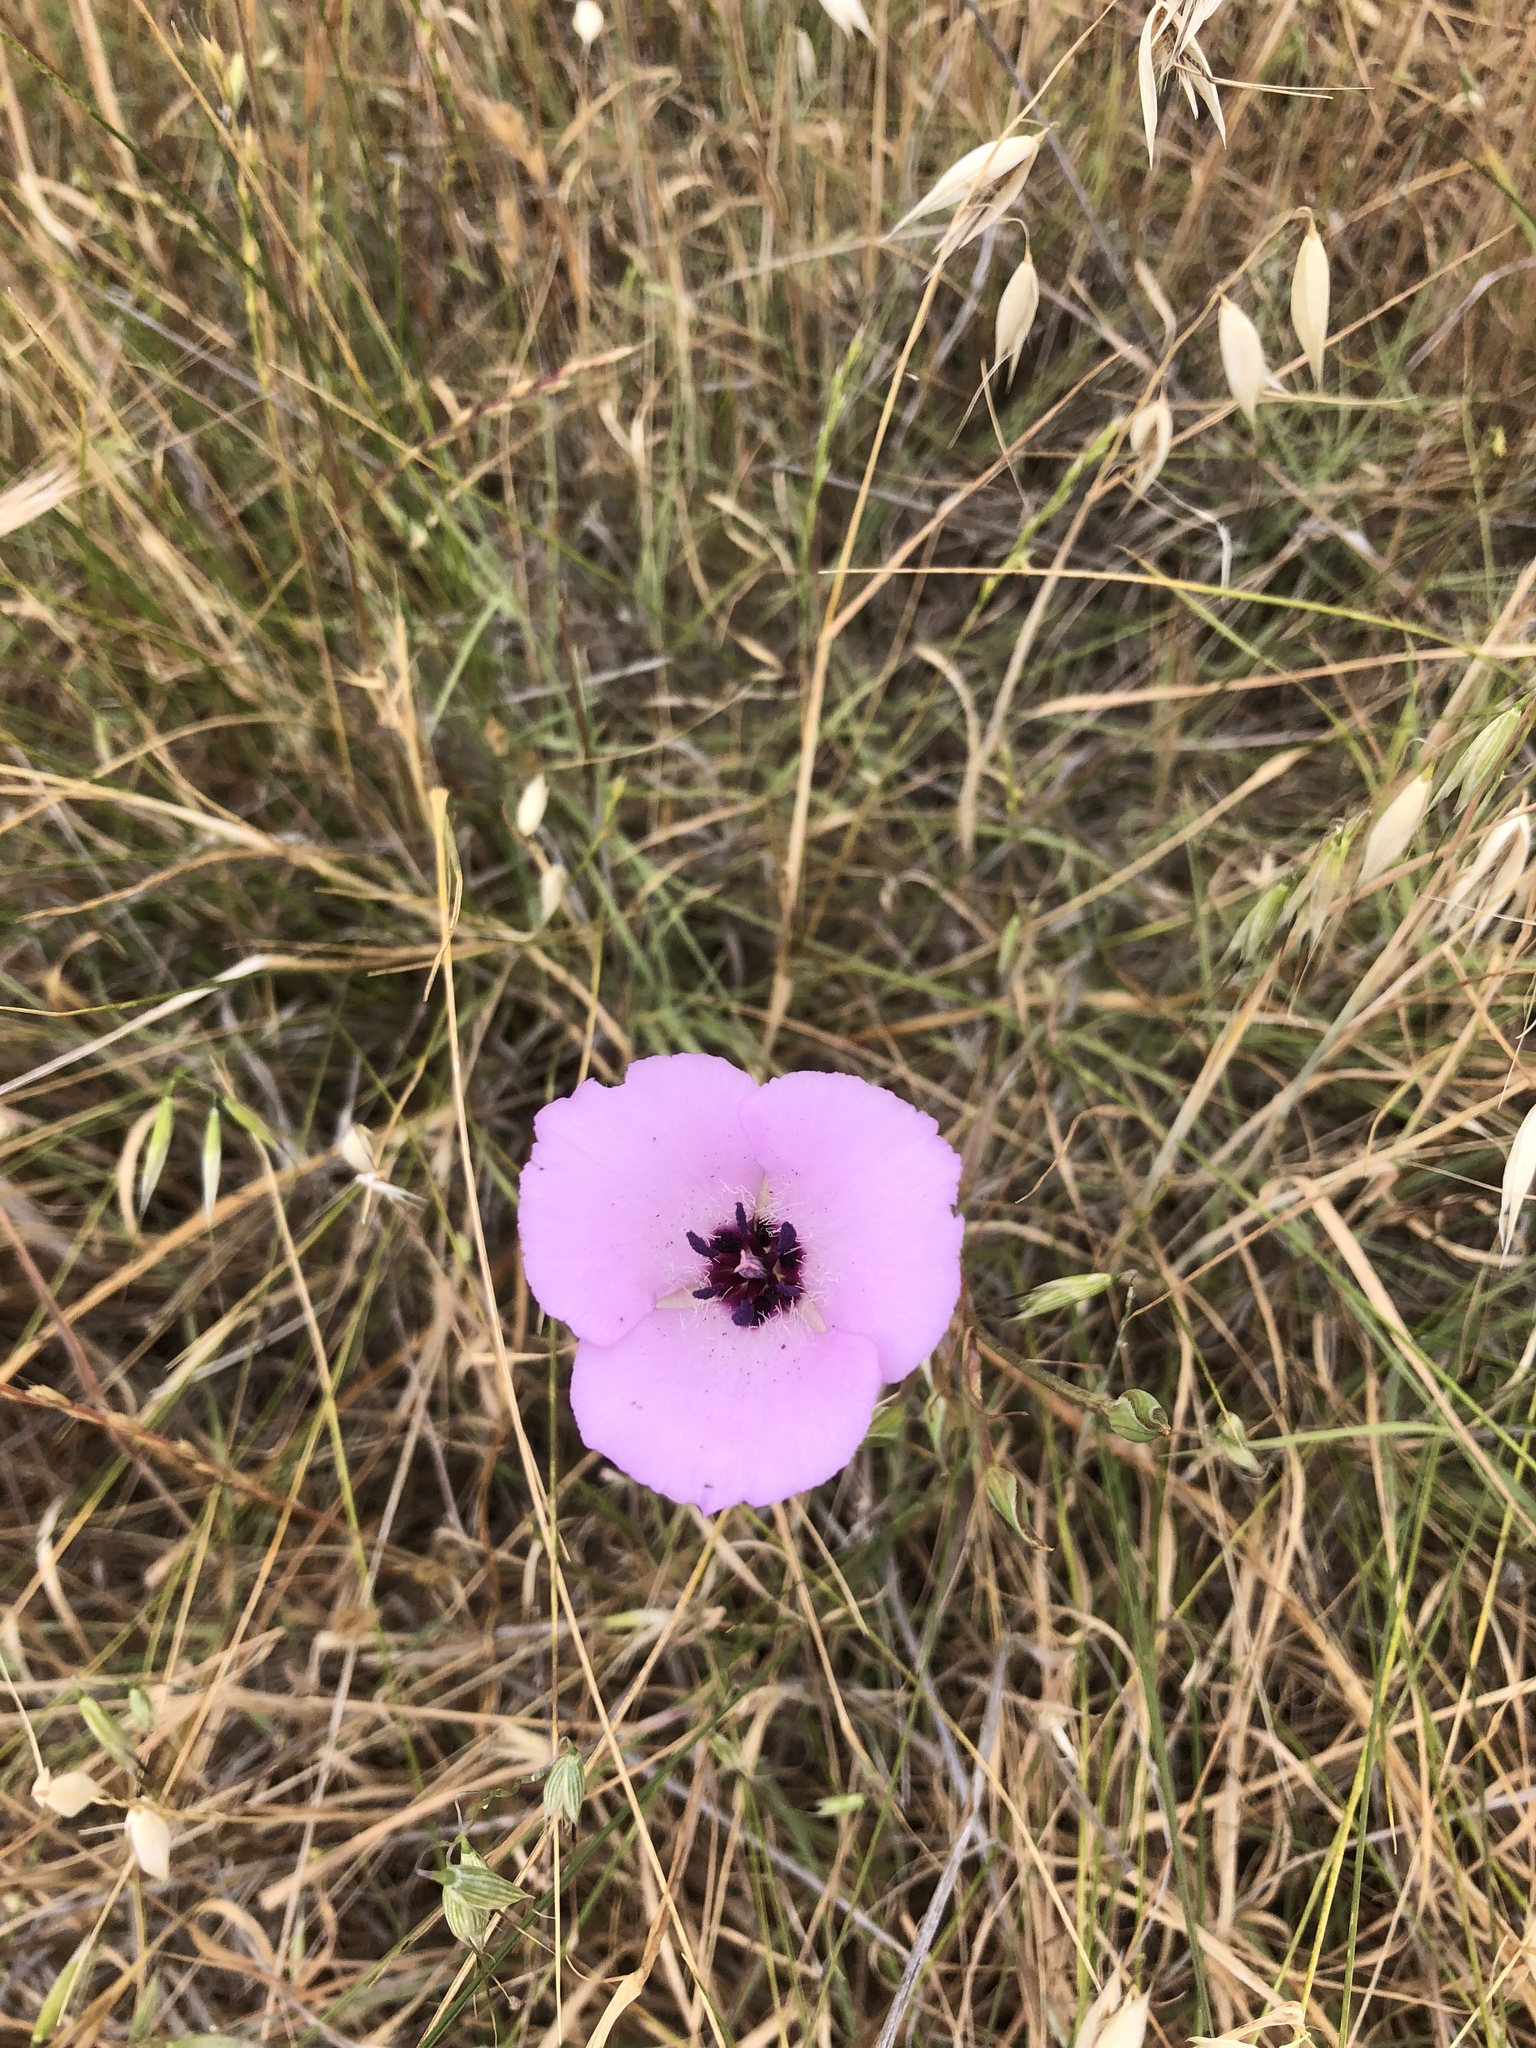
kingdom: Plantae
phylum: Tracheophyta
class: Liliopsida
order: Liliales
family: Liliaceae
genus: Calochortus
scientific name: Calochortus splendens
